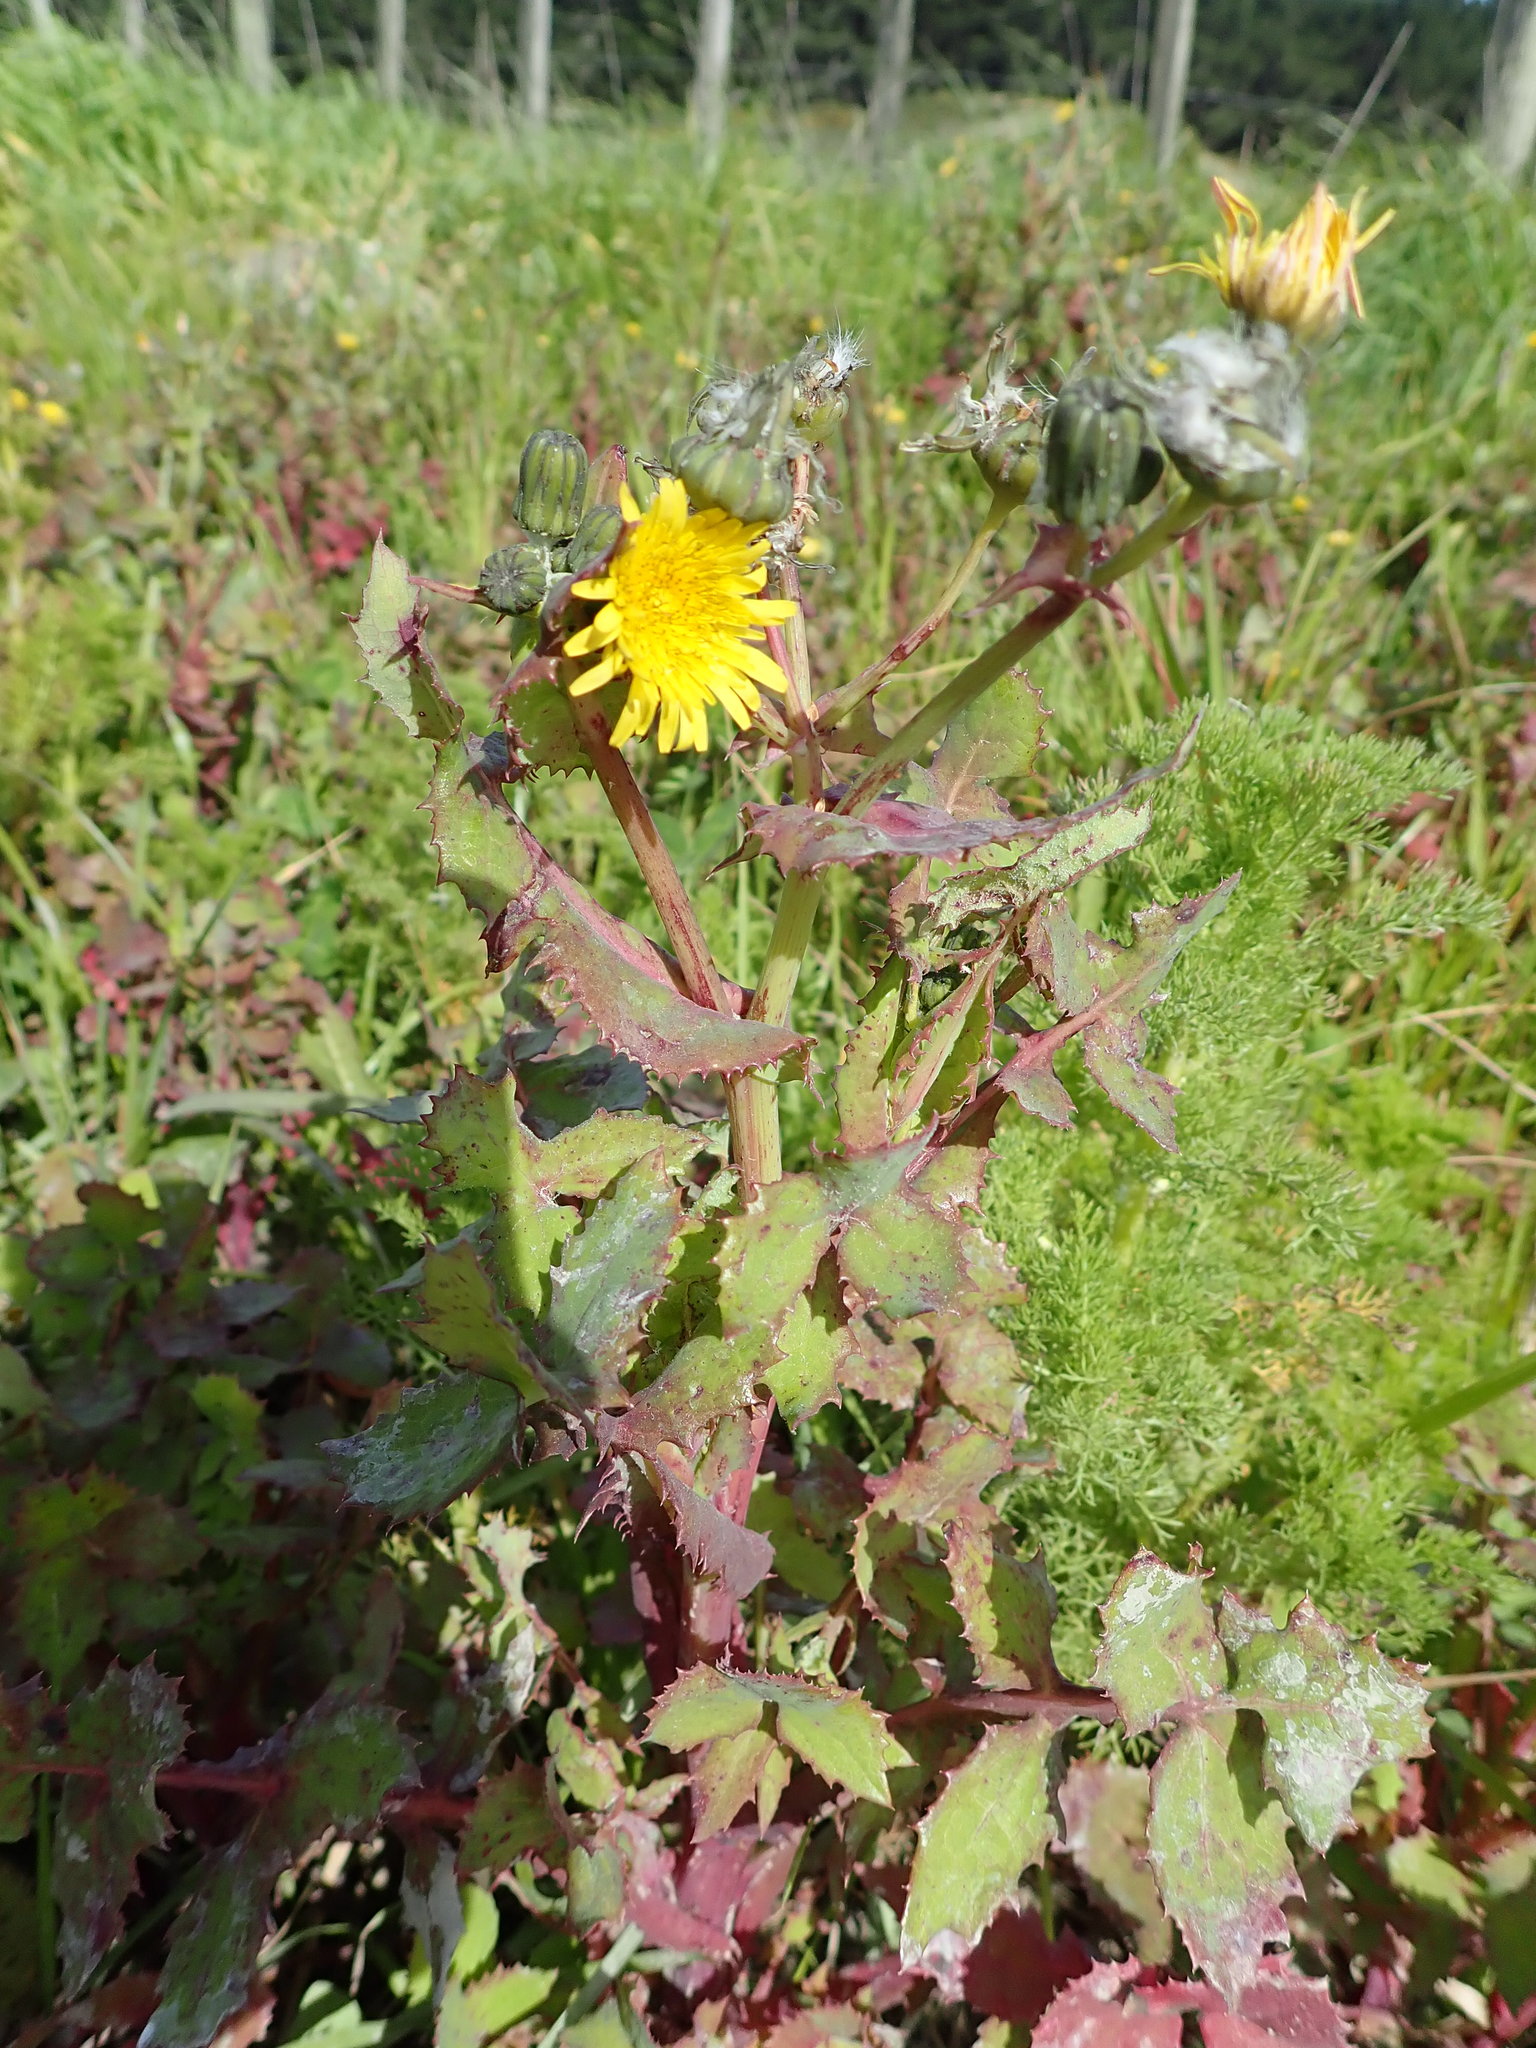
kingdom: Plantae
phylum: Tracheophyta
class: Magnoliopsida
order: Asterales
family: Asteraceae
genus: Sonchus
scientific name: Sonchus oleraceus
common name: Common sowthistle
